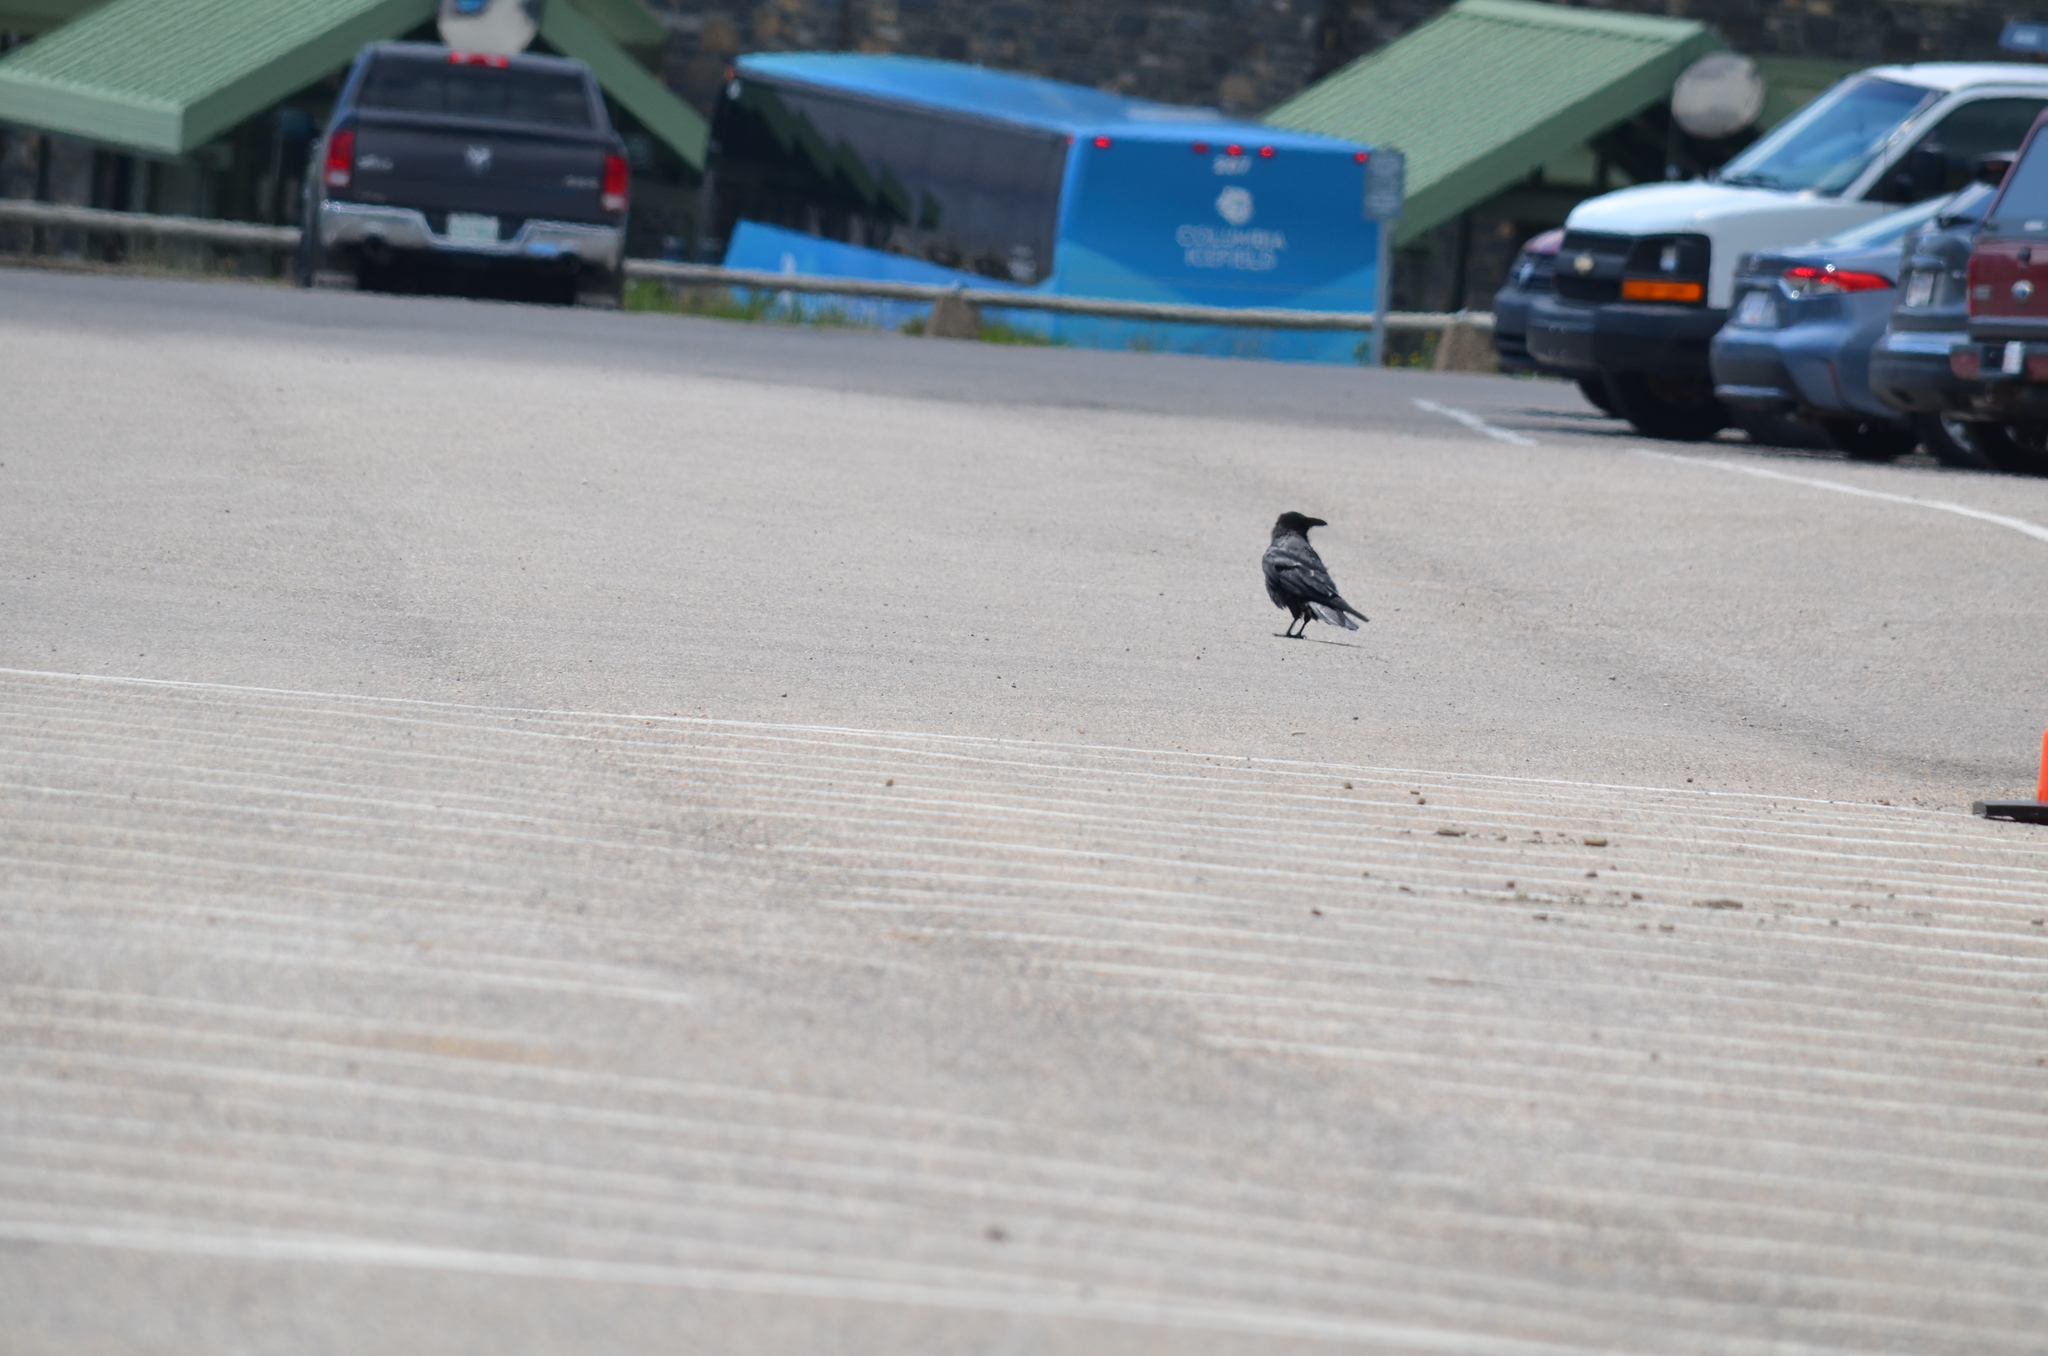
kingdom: Animalia
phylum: Chordata
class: Aves
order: Passeriformes
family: Corvidae
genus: Corvus
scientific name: Corvus corax
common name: Common raven
